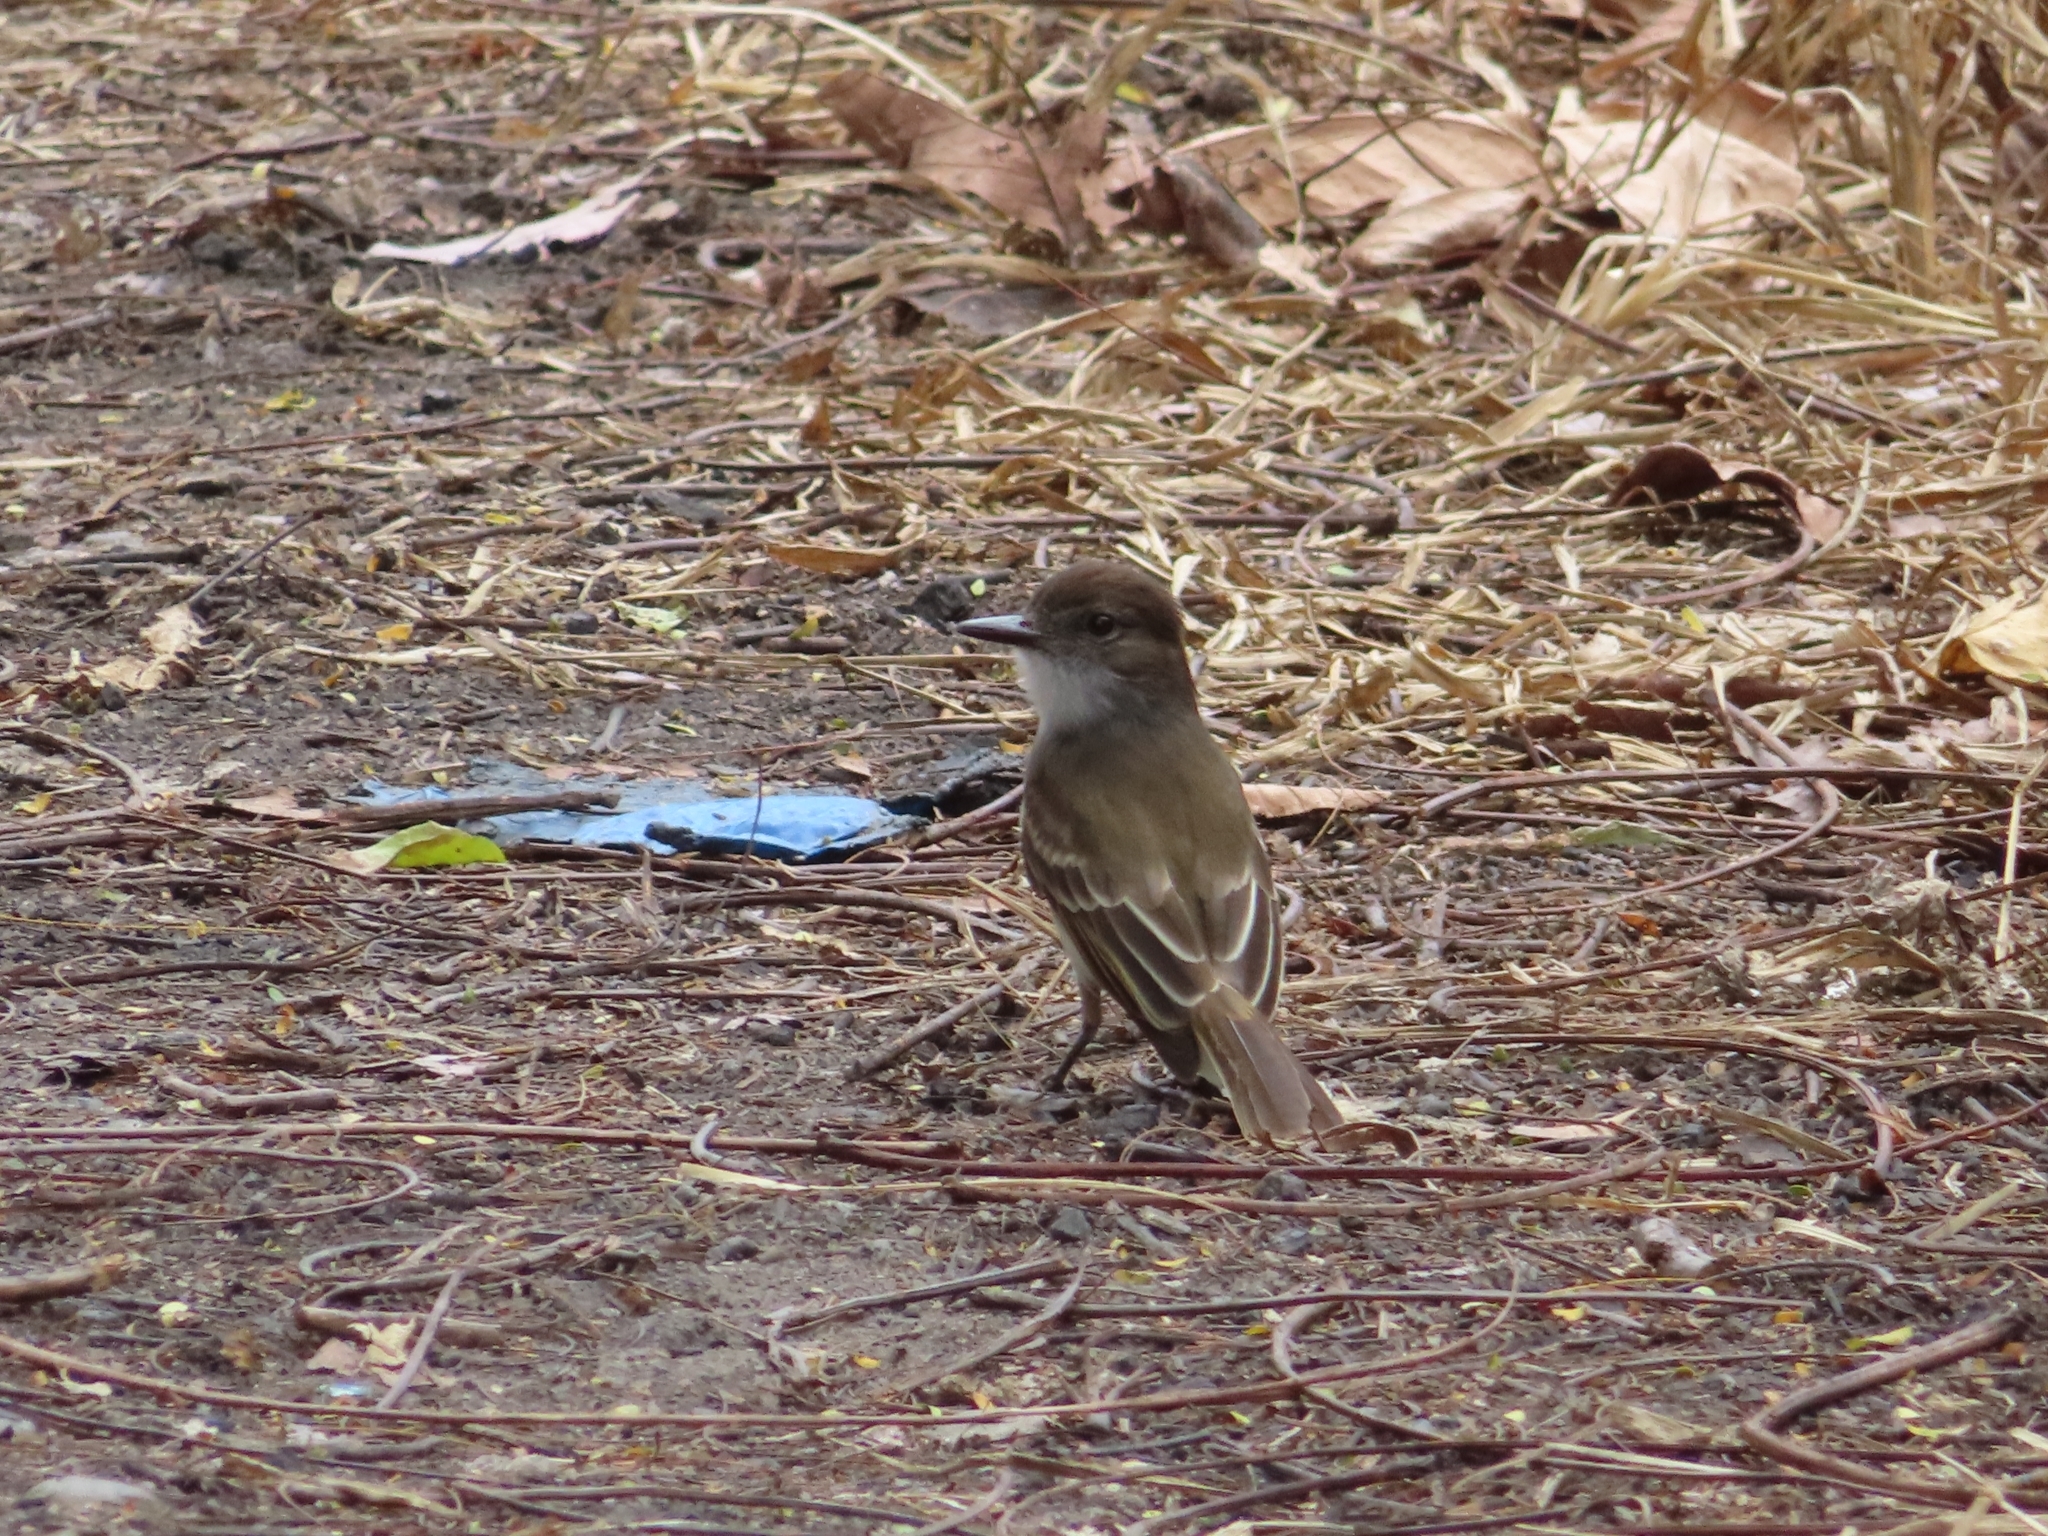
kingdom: Animalia
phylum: Chordata
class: Aves
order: Passeriformes
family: Tyrannidae
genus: Myiarchus
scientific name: Myiarchus antillarum
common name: Puerto rican flycatcher
